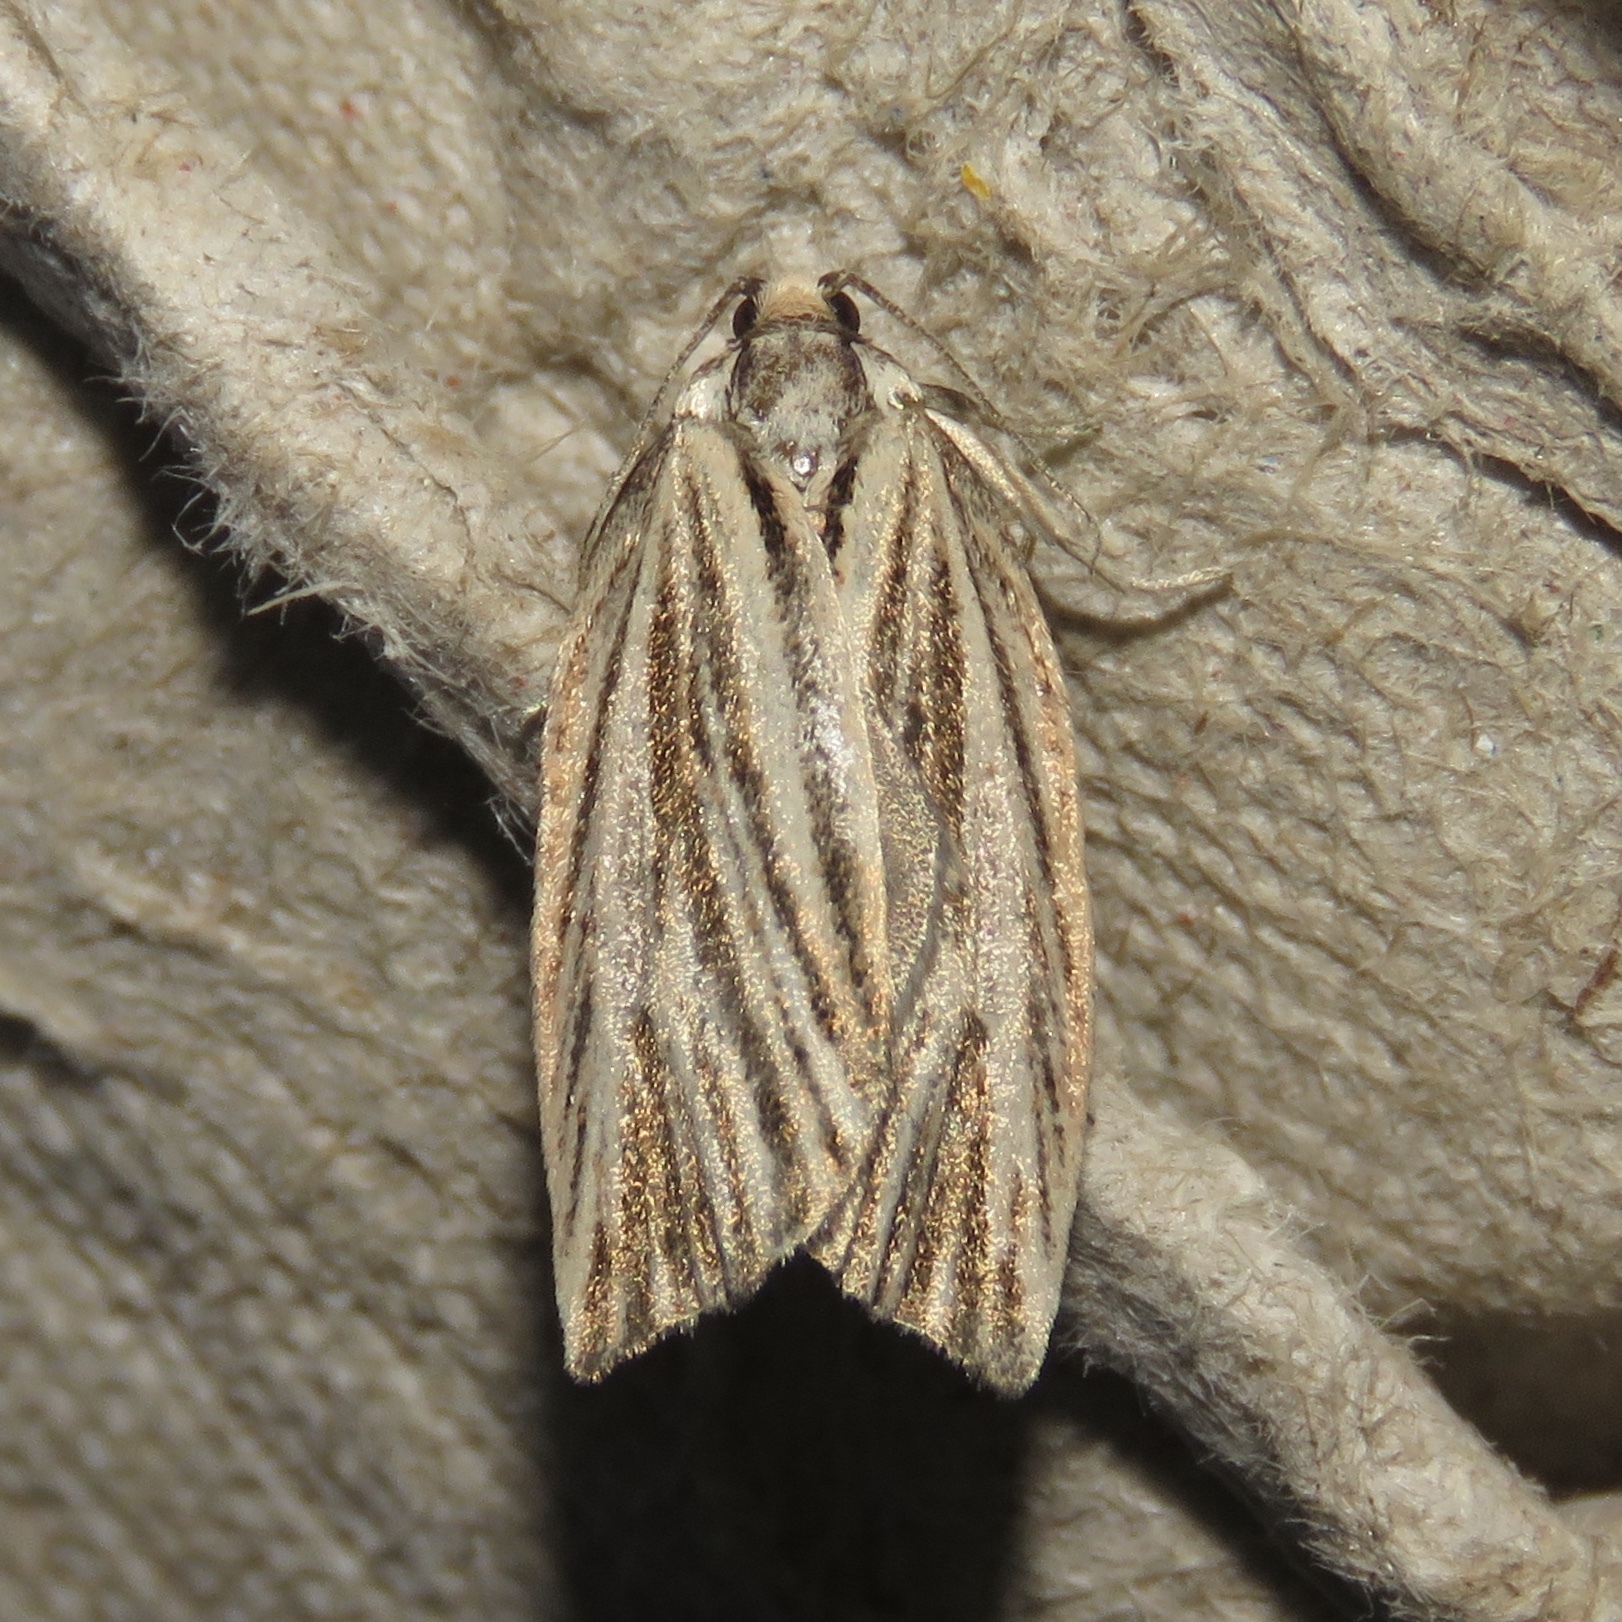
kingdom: Animalia
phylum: Arthropoda
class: Insecta
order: Lepidoptera
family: Tortricidae
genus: Archips
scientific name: Archips strianus
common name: Striated tortrix moth
